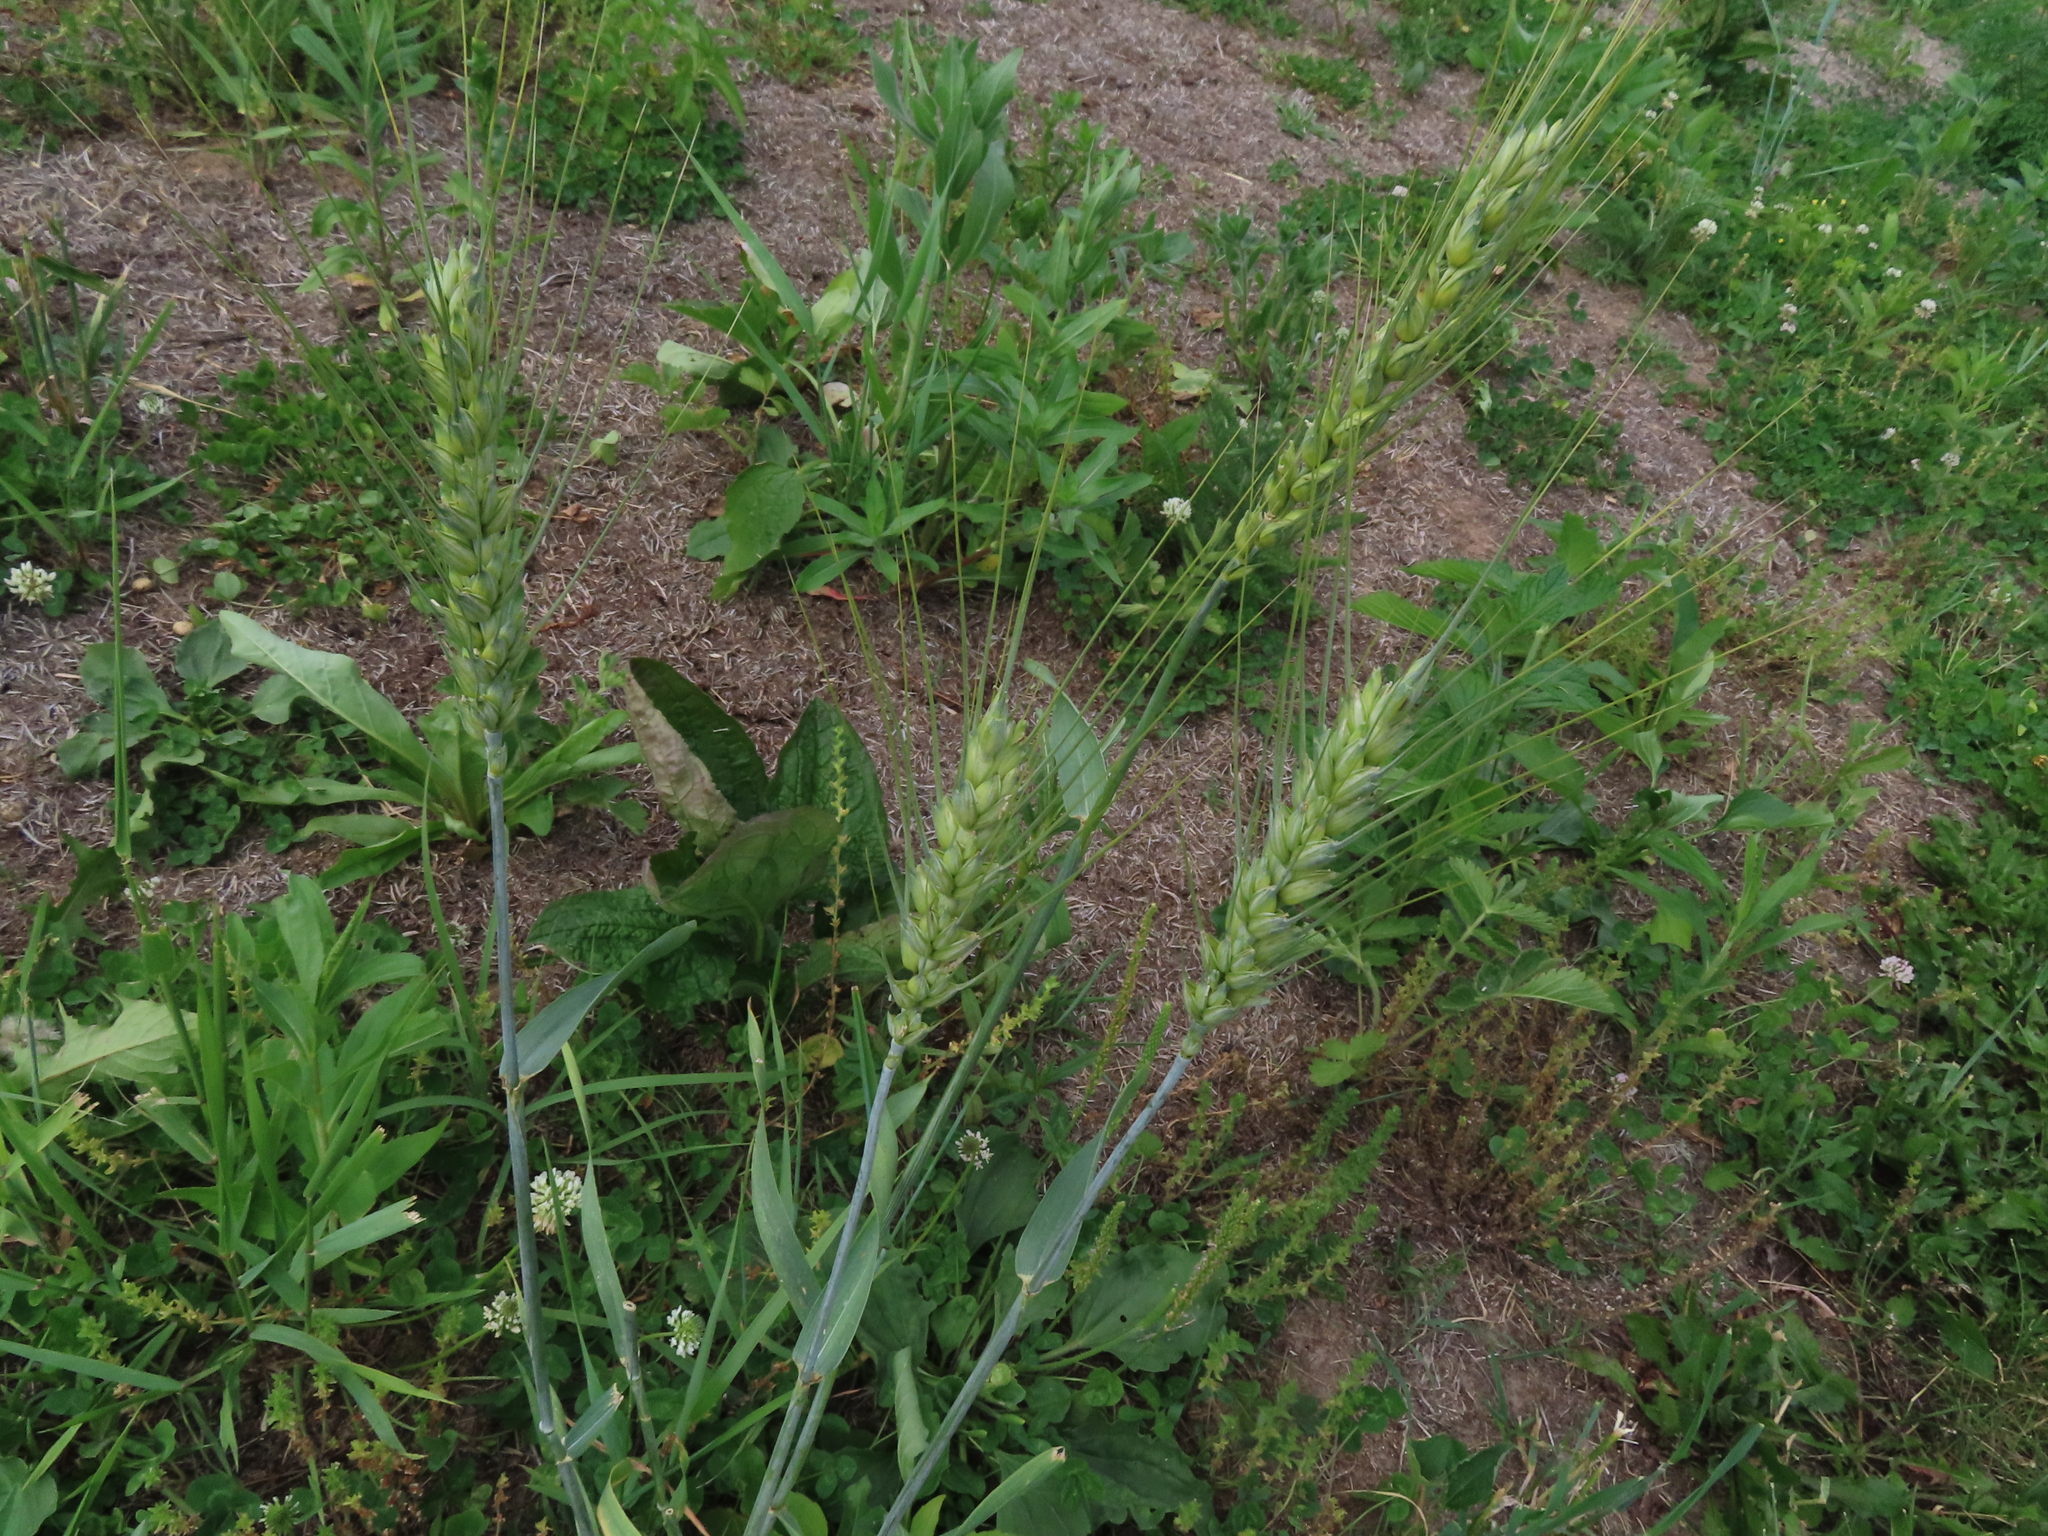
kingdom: Plantae
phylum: Tracheophyta
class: Liliopsida
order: Poales
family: Poaceae
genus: Triticum
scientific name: Triticum aestivum
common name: Common wheat
